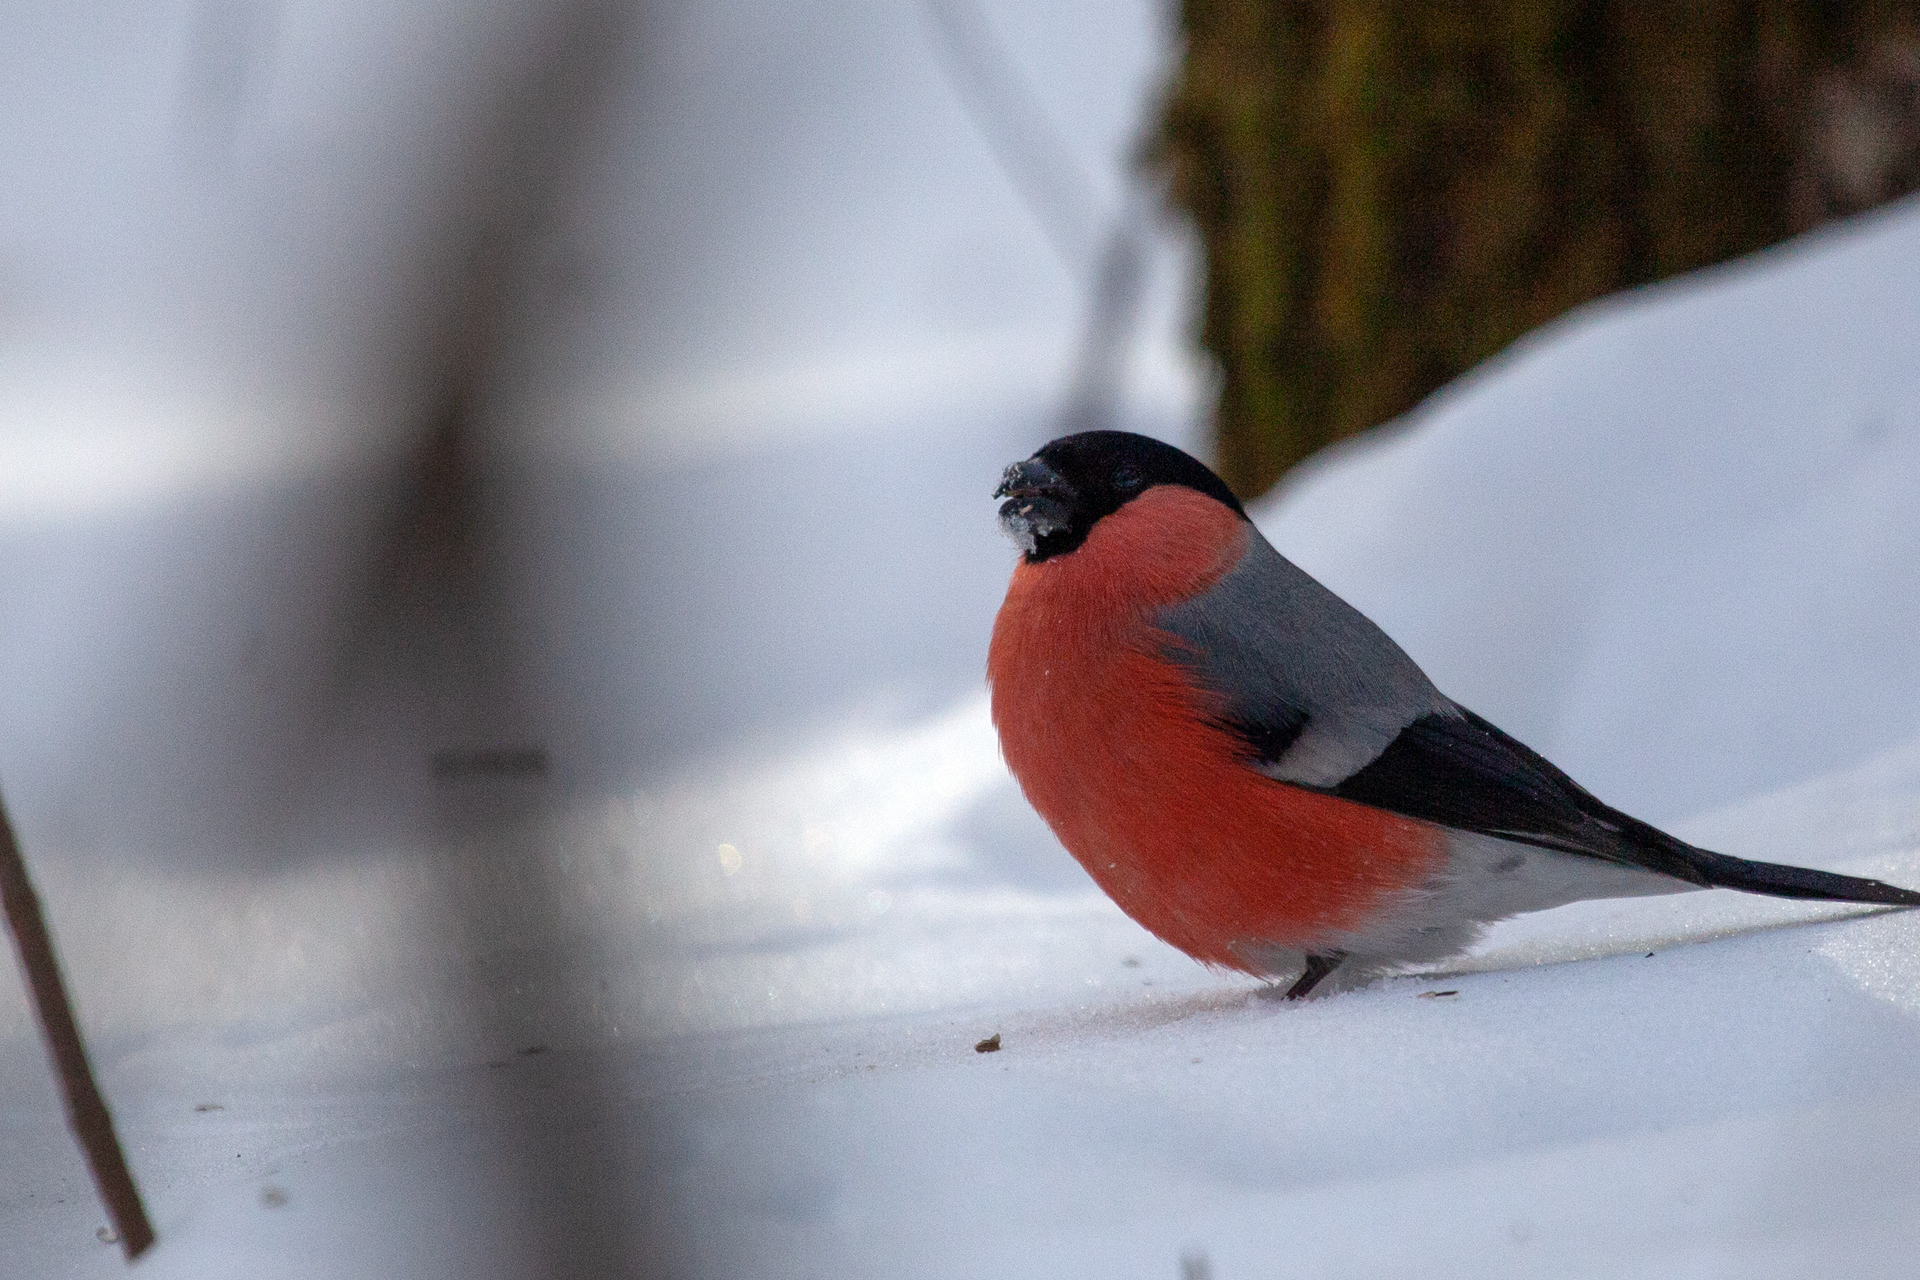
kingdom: Animalia
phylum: Chordata
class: Aves
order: Passeriformes
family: Fringillidae
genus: Pyrrhula
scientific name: Pyrrhula pyrrhula
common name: Eurasian bullfinch
